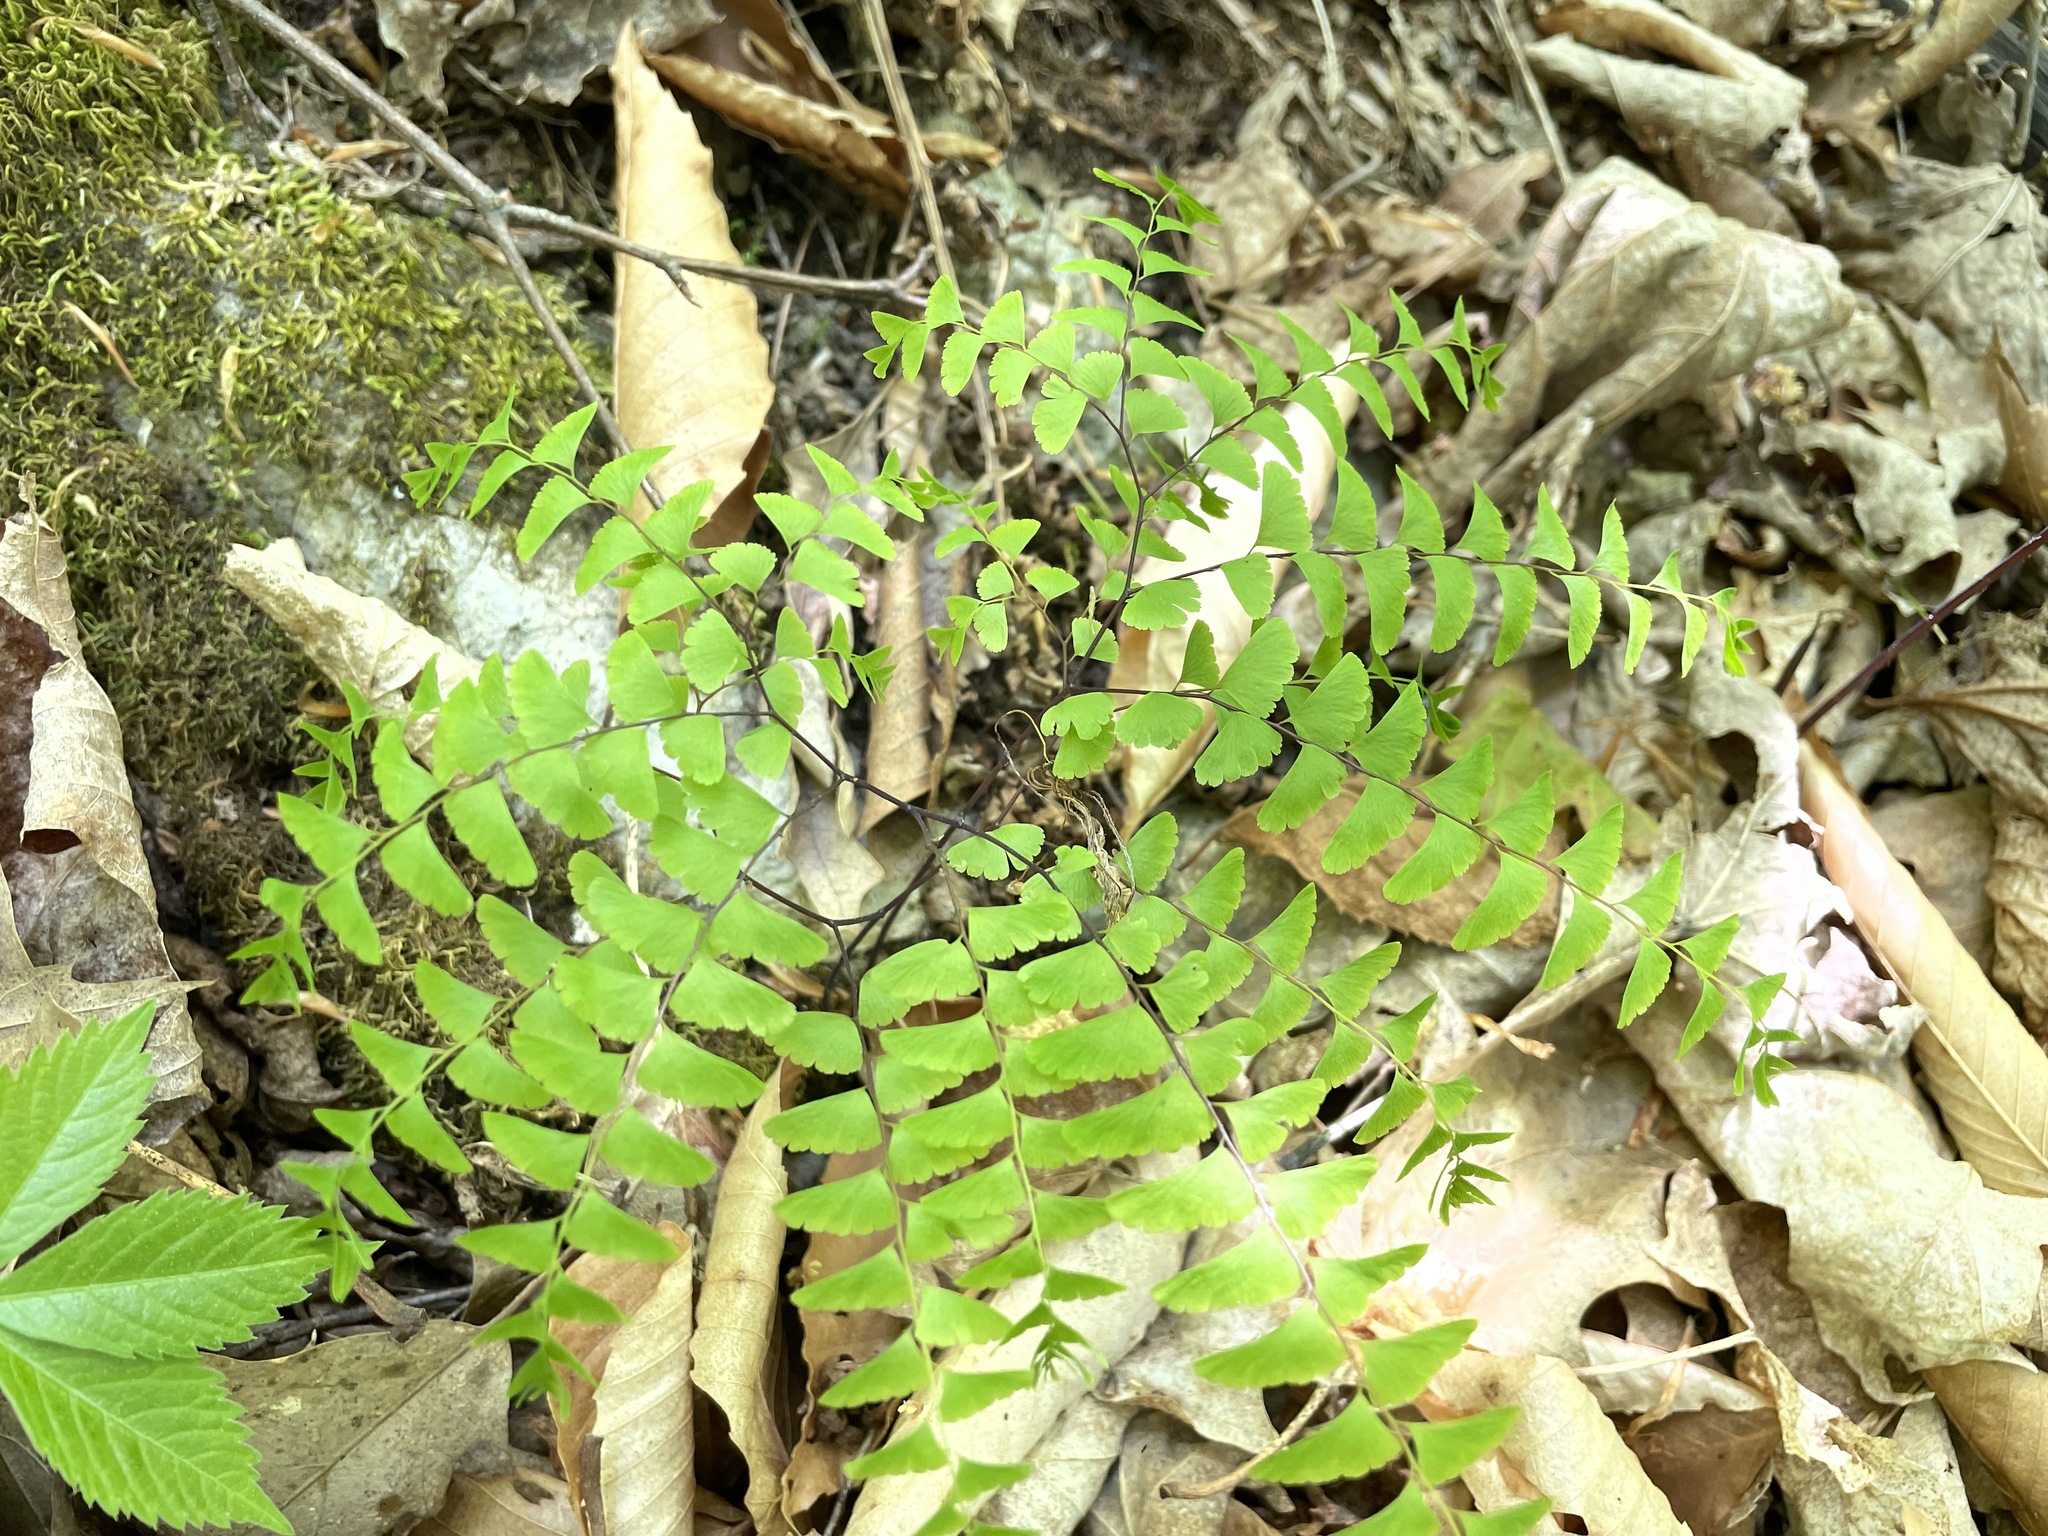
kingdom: Plantae
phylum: Tracheophyta
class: Polypodiopsida
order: Polypodiales
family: Pteridaceae
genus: Adiantum
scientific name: Adiantum pedatum
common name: Five-finger fern
